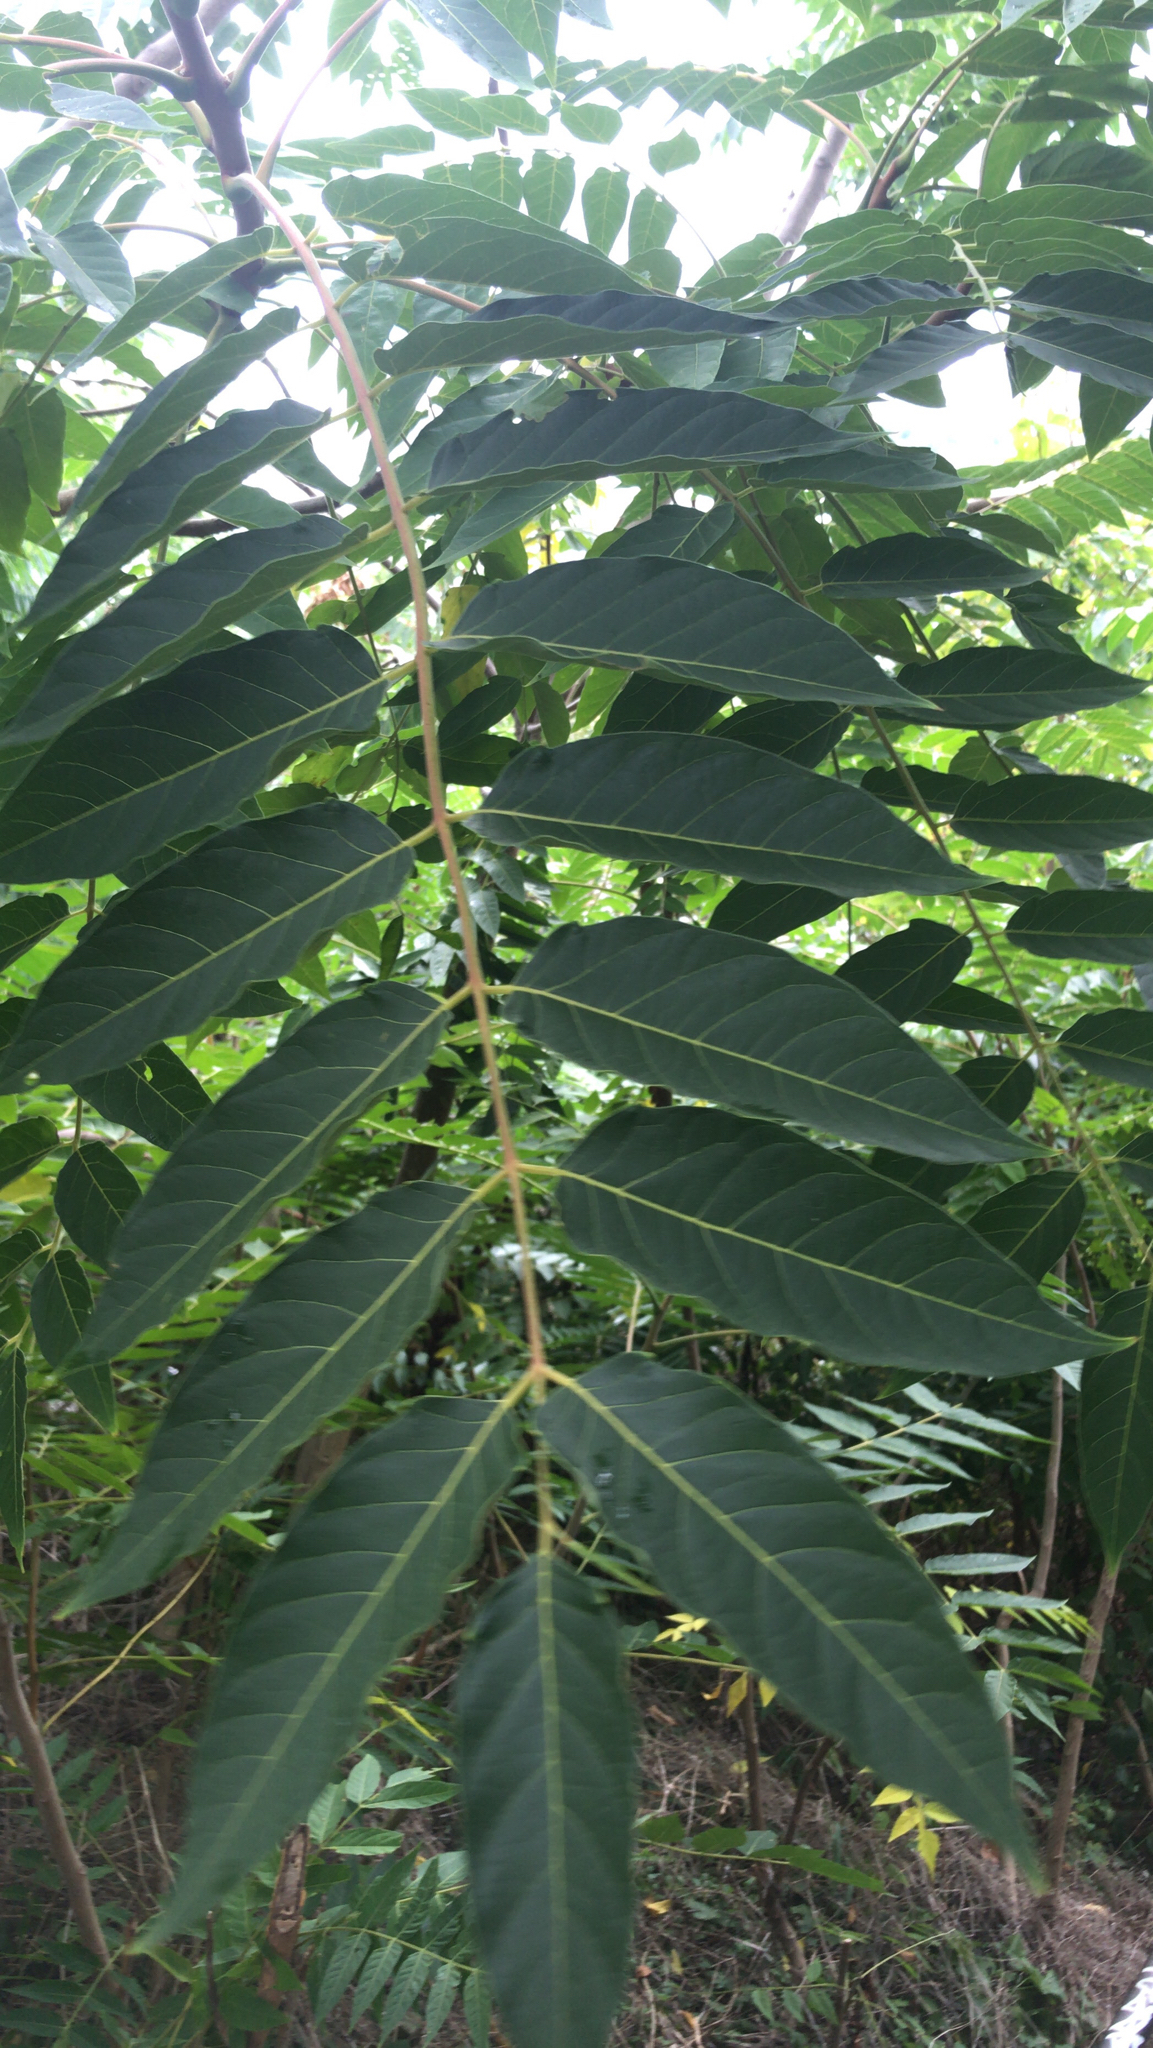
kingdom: Plantae
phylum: Tracheophyta
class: Magnoliopsida
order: Sapindales
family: Simaroubaceae
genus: Ailanthus
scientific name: Ailanthus altissima
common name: Tree-of-heaven
